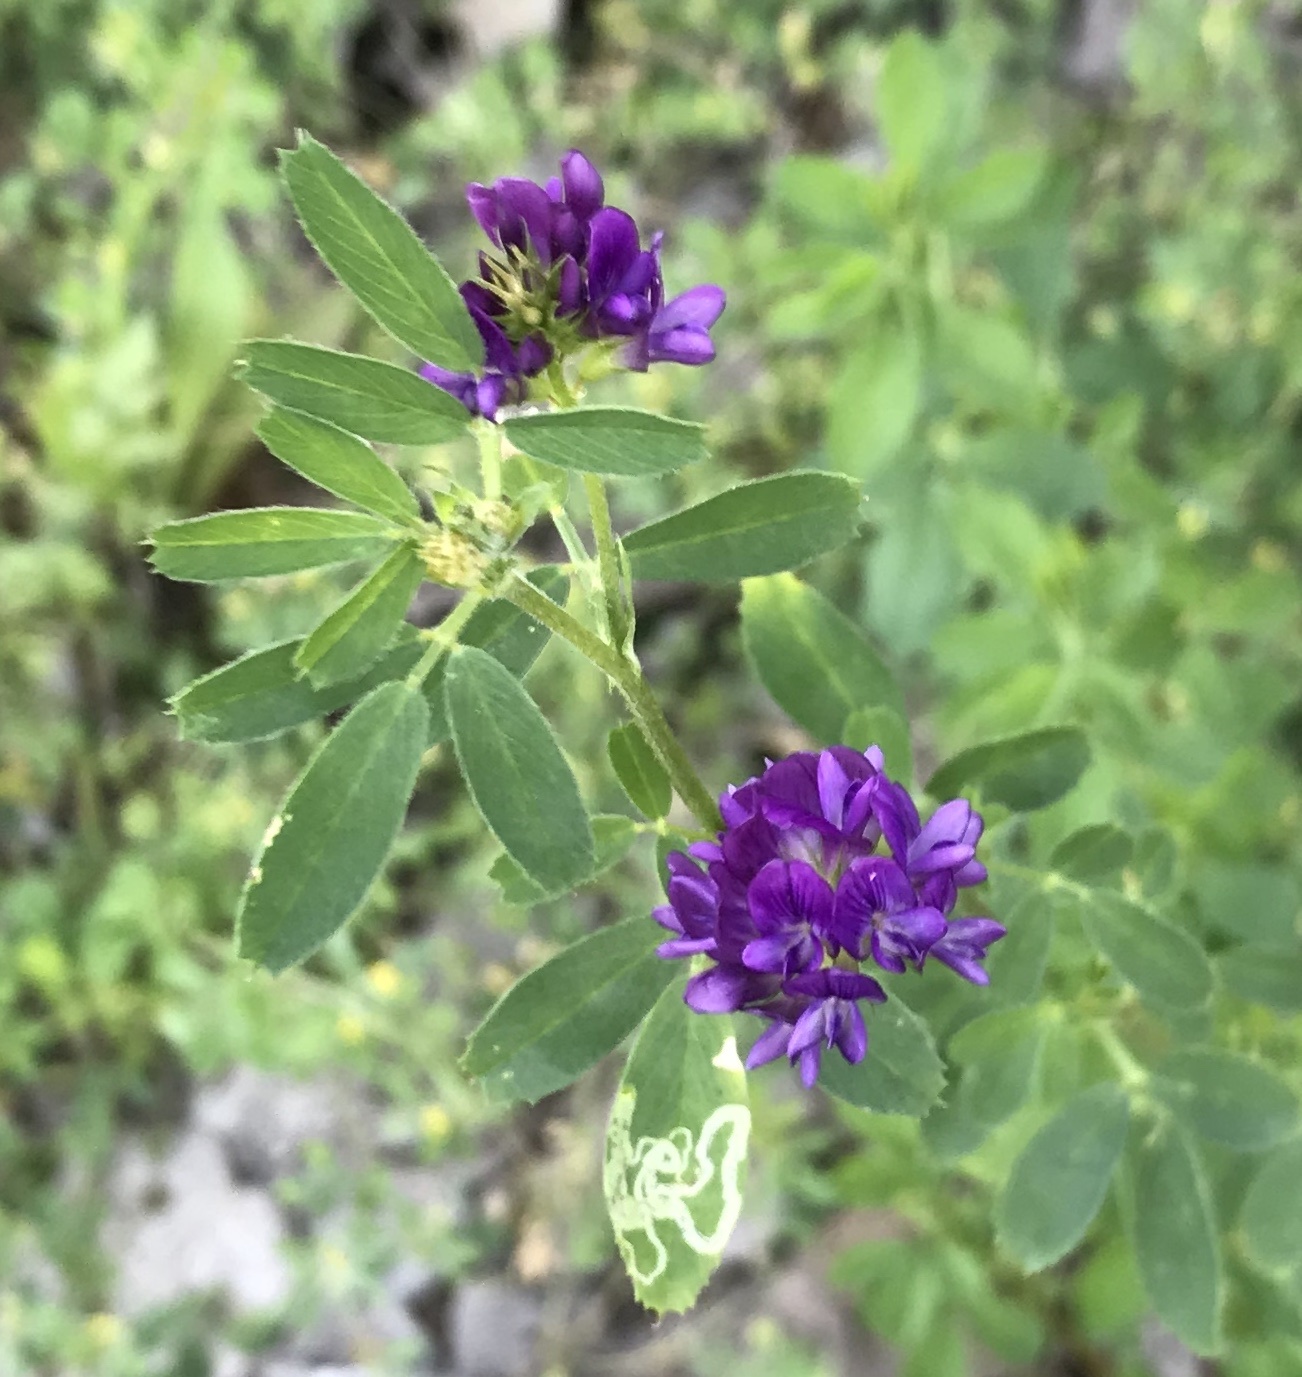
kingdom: Plantae
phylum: Tracheophyta
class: Magnoliopsida
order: Fabales
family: Fabaceae
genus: Medicago
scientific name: Medicago sativa
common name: Alfalfa
